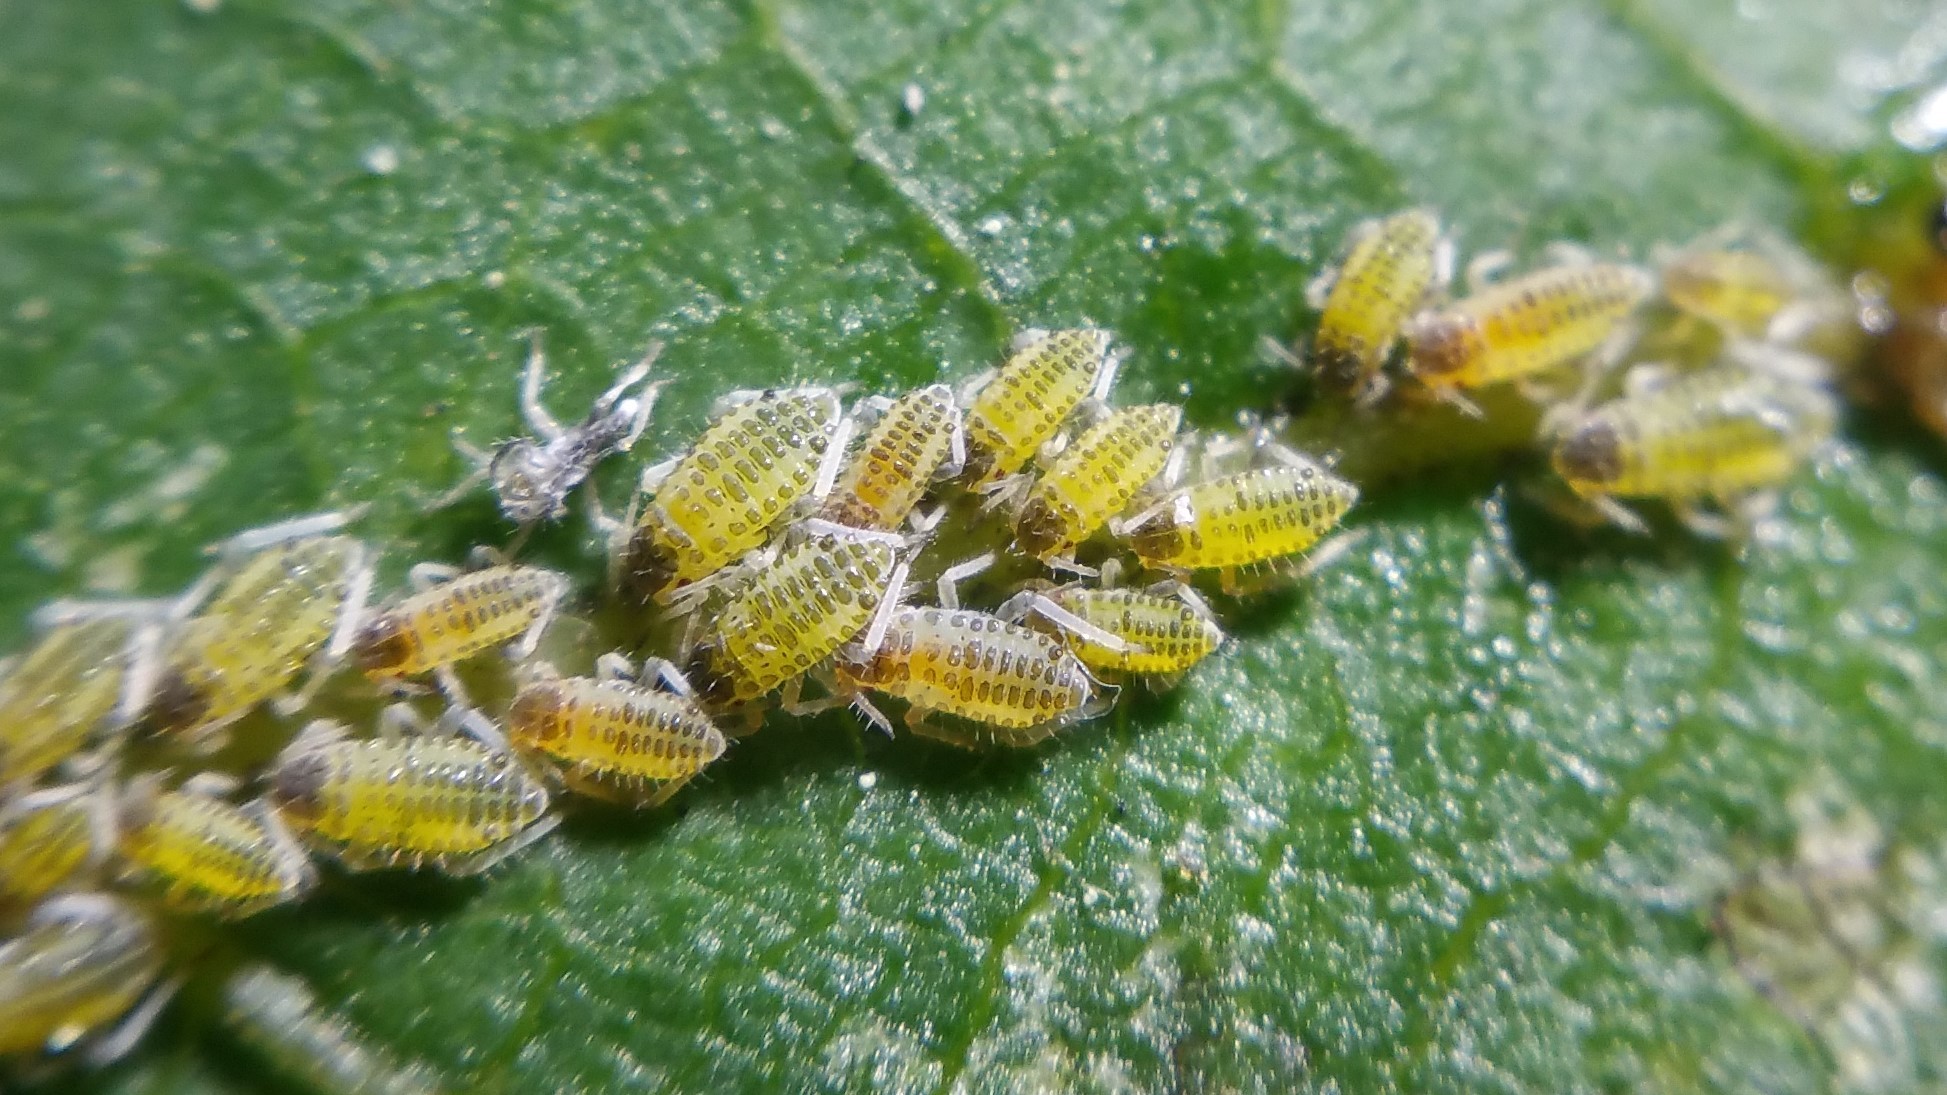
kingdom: Animalia
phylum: Arthropoda
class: Insecta
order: Hemiptera
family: Aphididae
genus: Panaphis
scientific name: Panaphis juglandis
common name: Large walnut aphid
